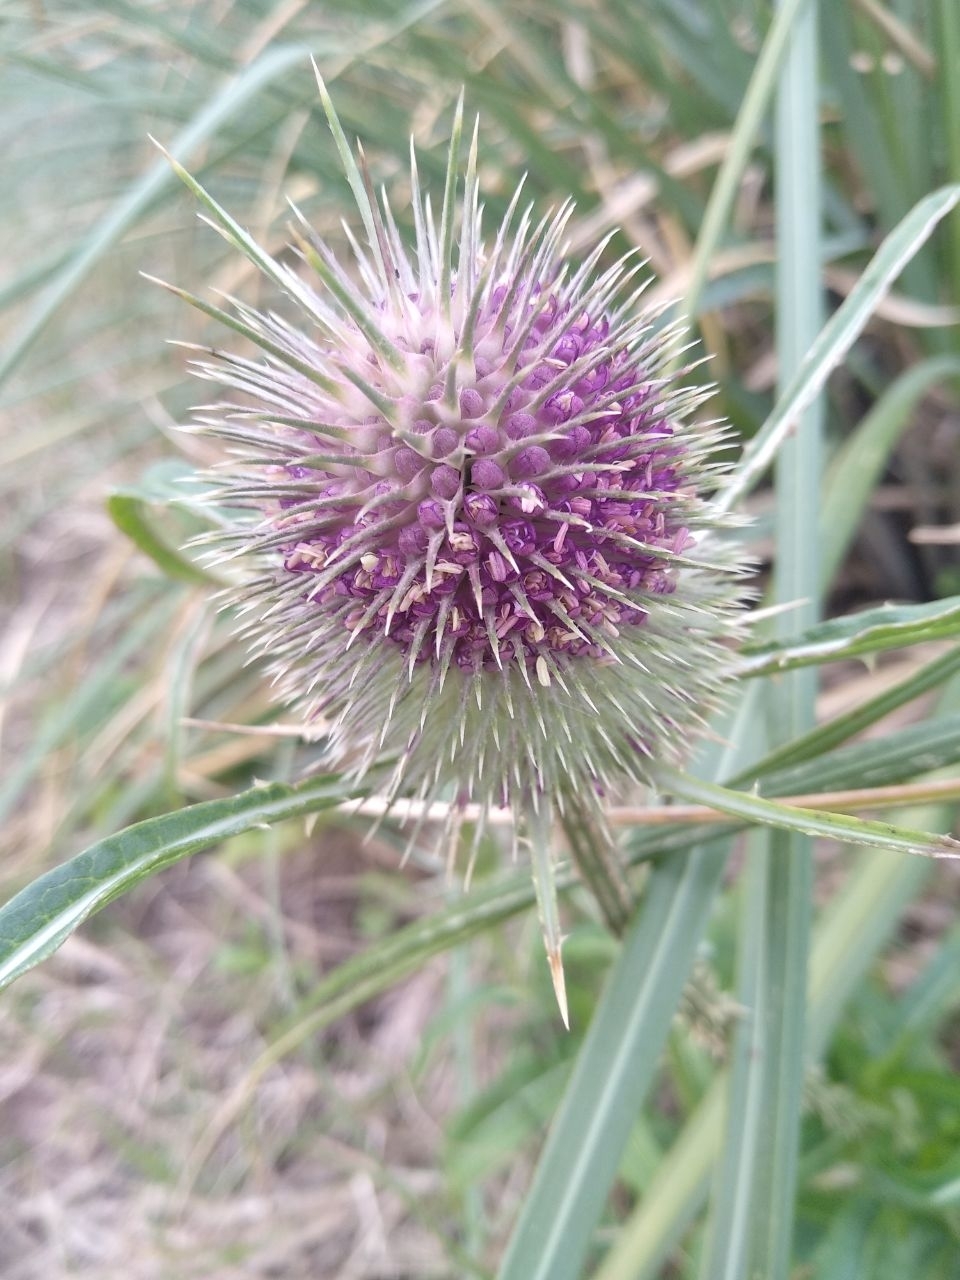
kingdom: Plantae
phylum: Tracheophyta
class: Magnoliopsida
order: Dipsacales
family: Caprifoliaceae
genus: Dipsacus
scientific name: Dipsacus fullonum
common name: Teasel
